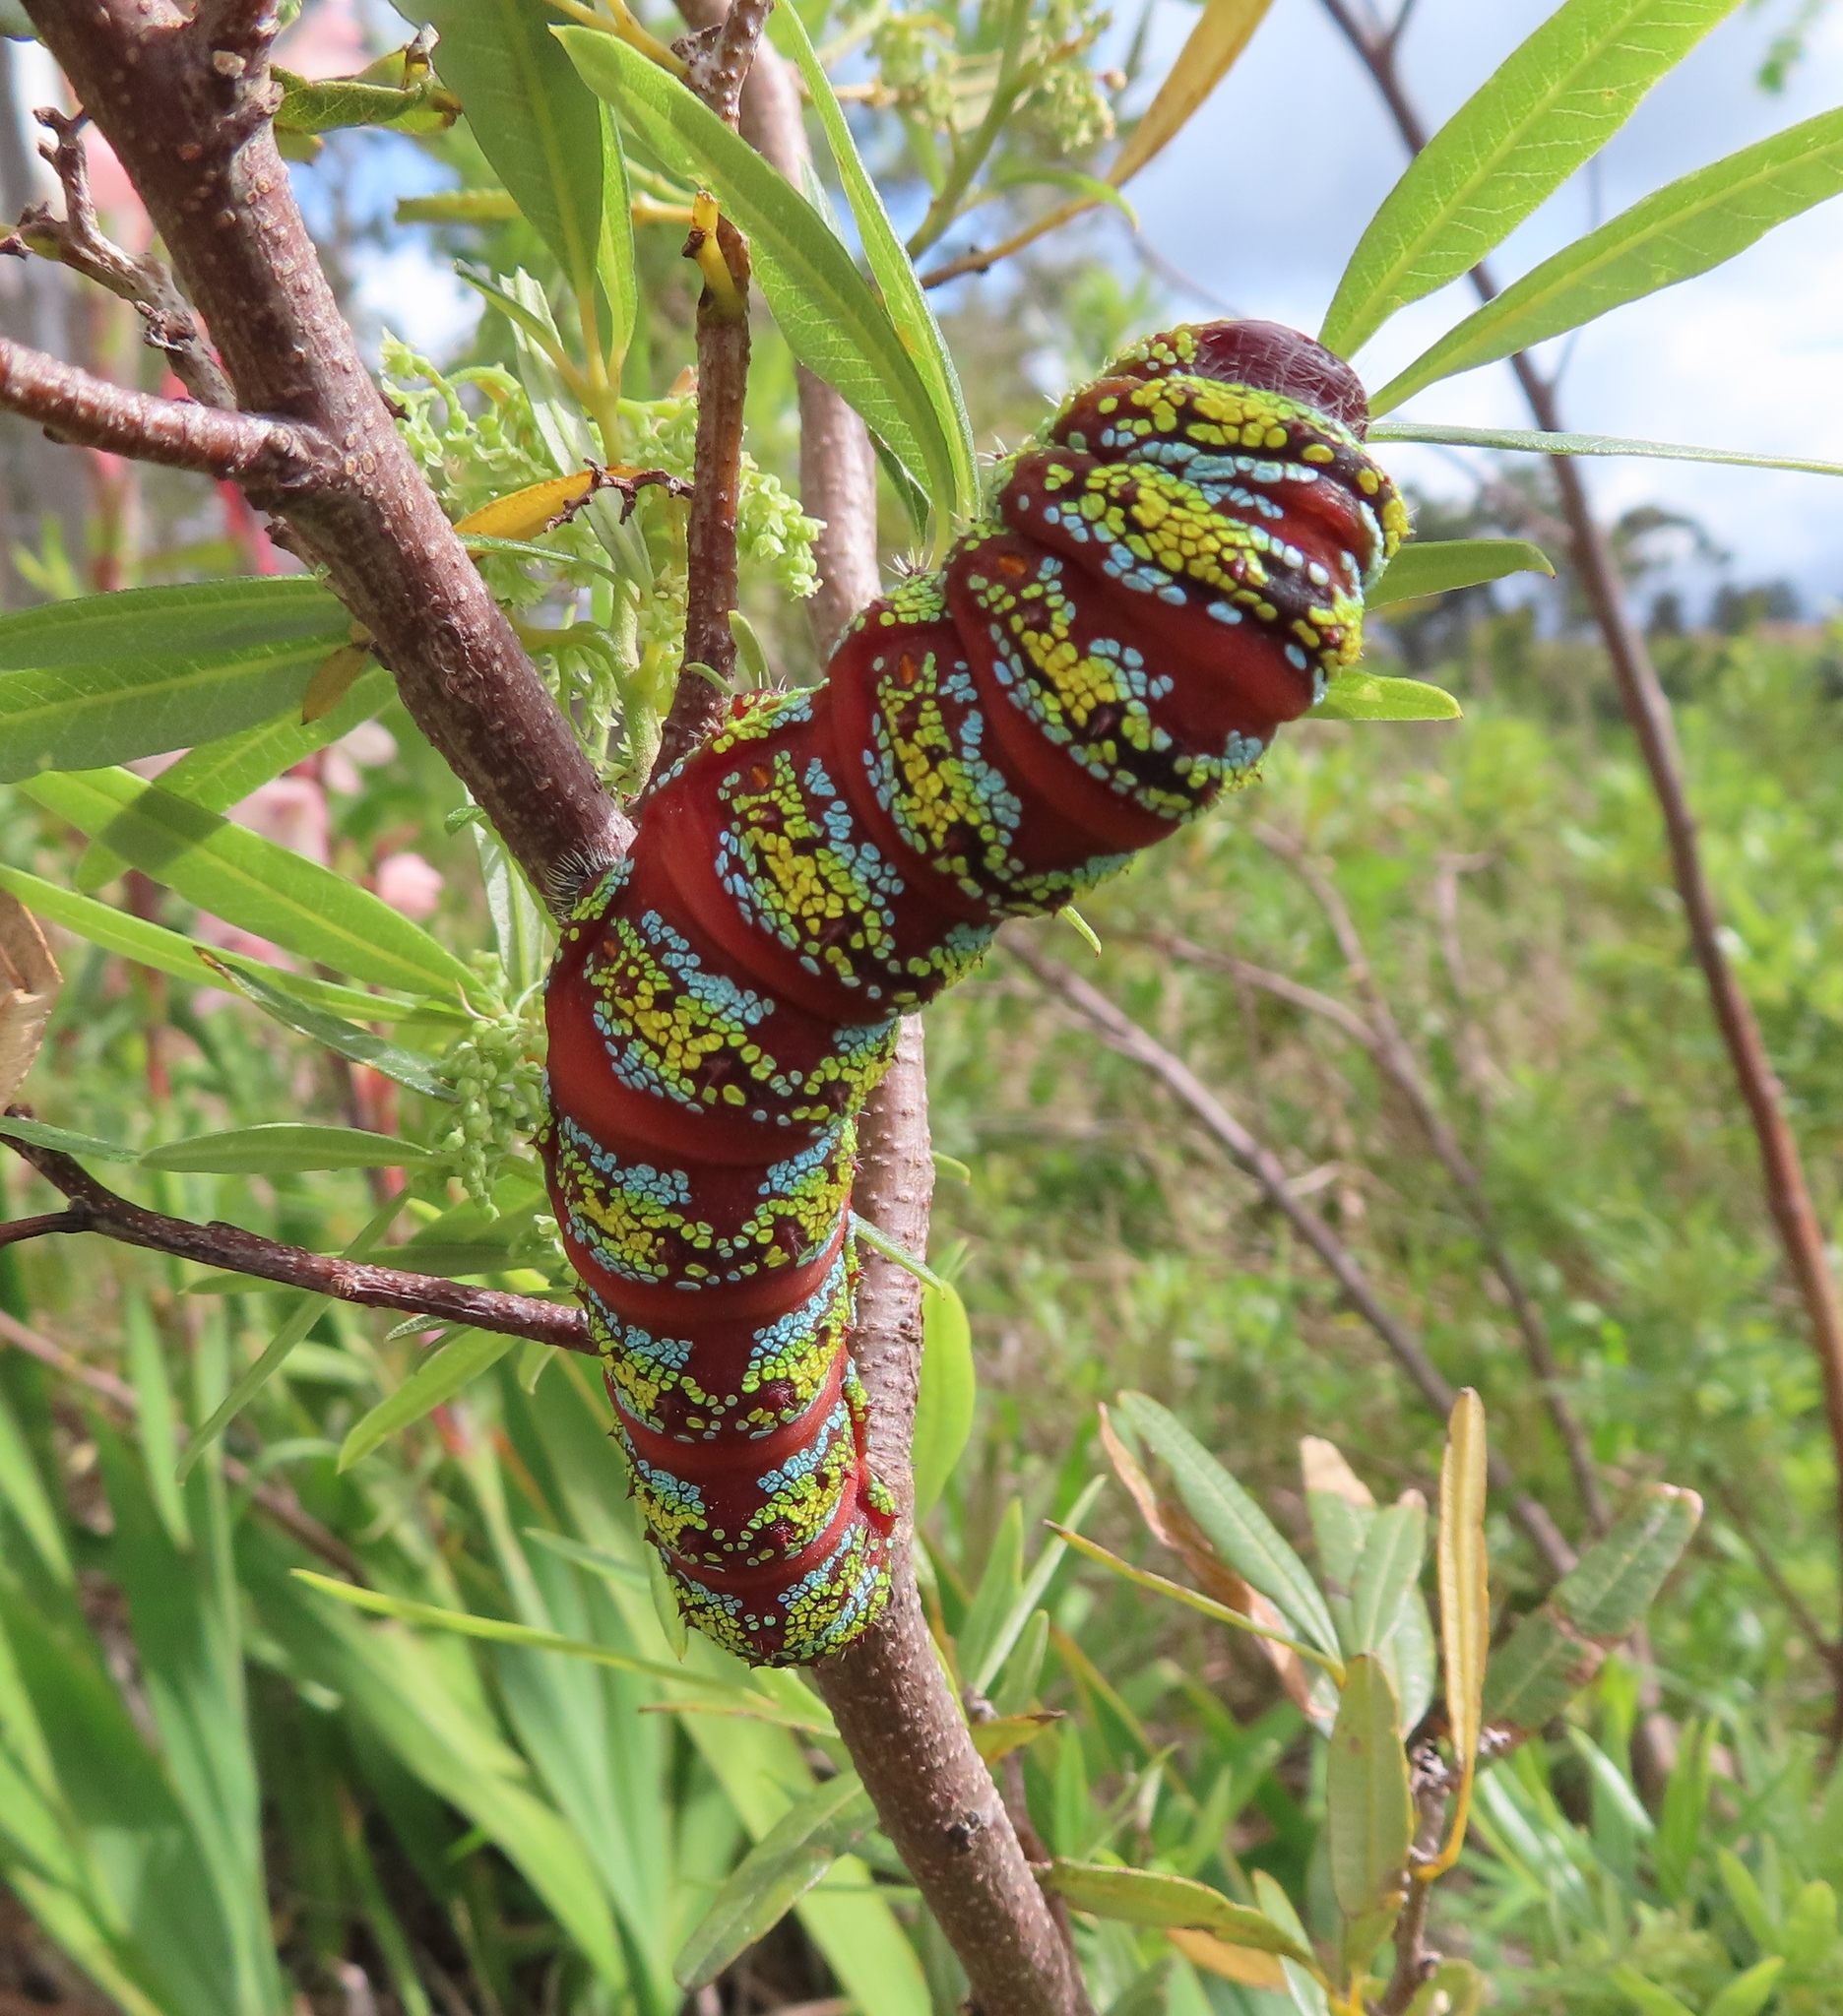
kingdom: Animalia
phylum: Arthropoda
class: Insecta
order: Lepidoptera
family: Saturniidae
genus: Nudaurelia
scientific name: Nudaurelia cytherea
